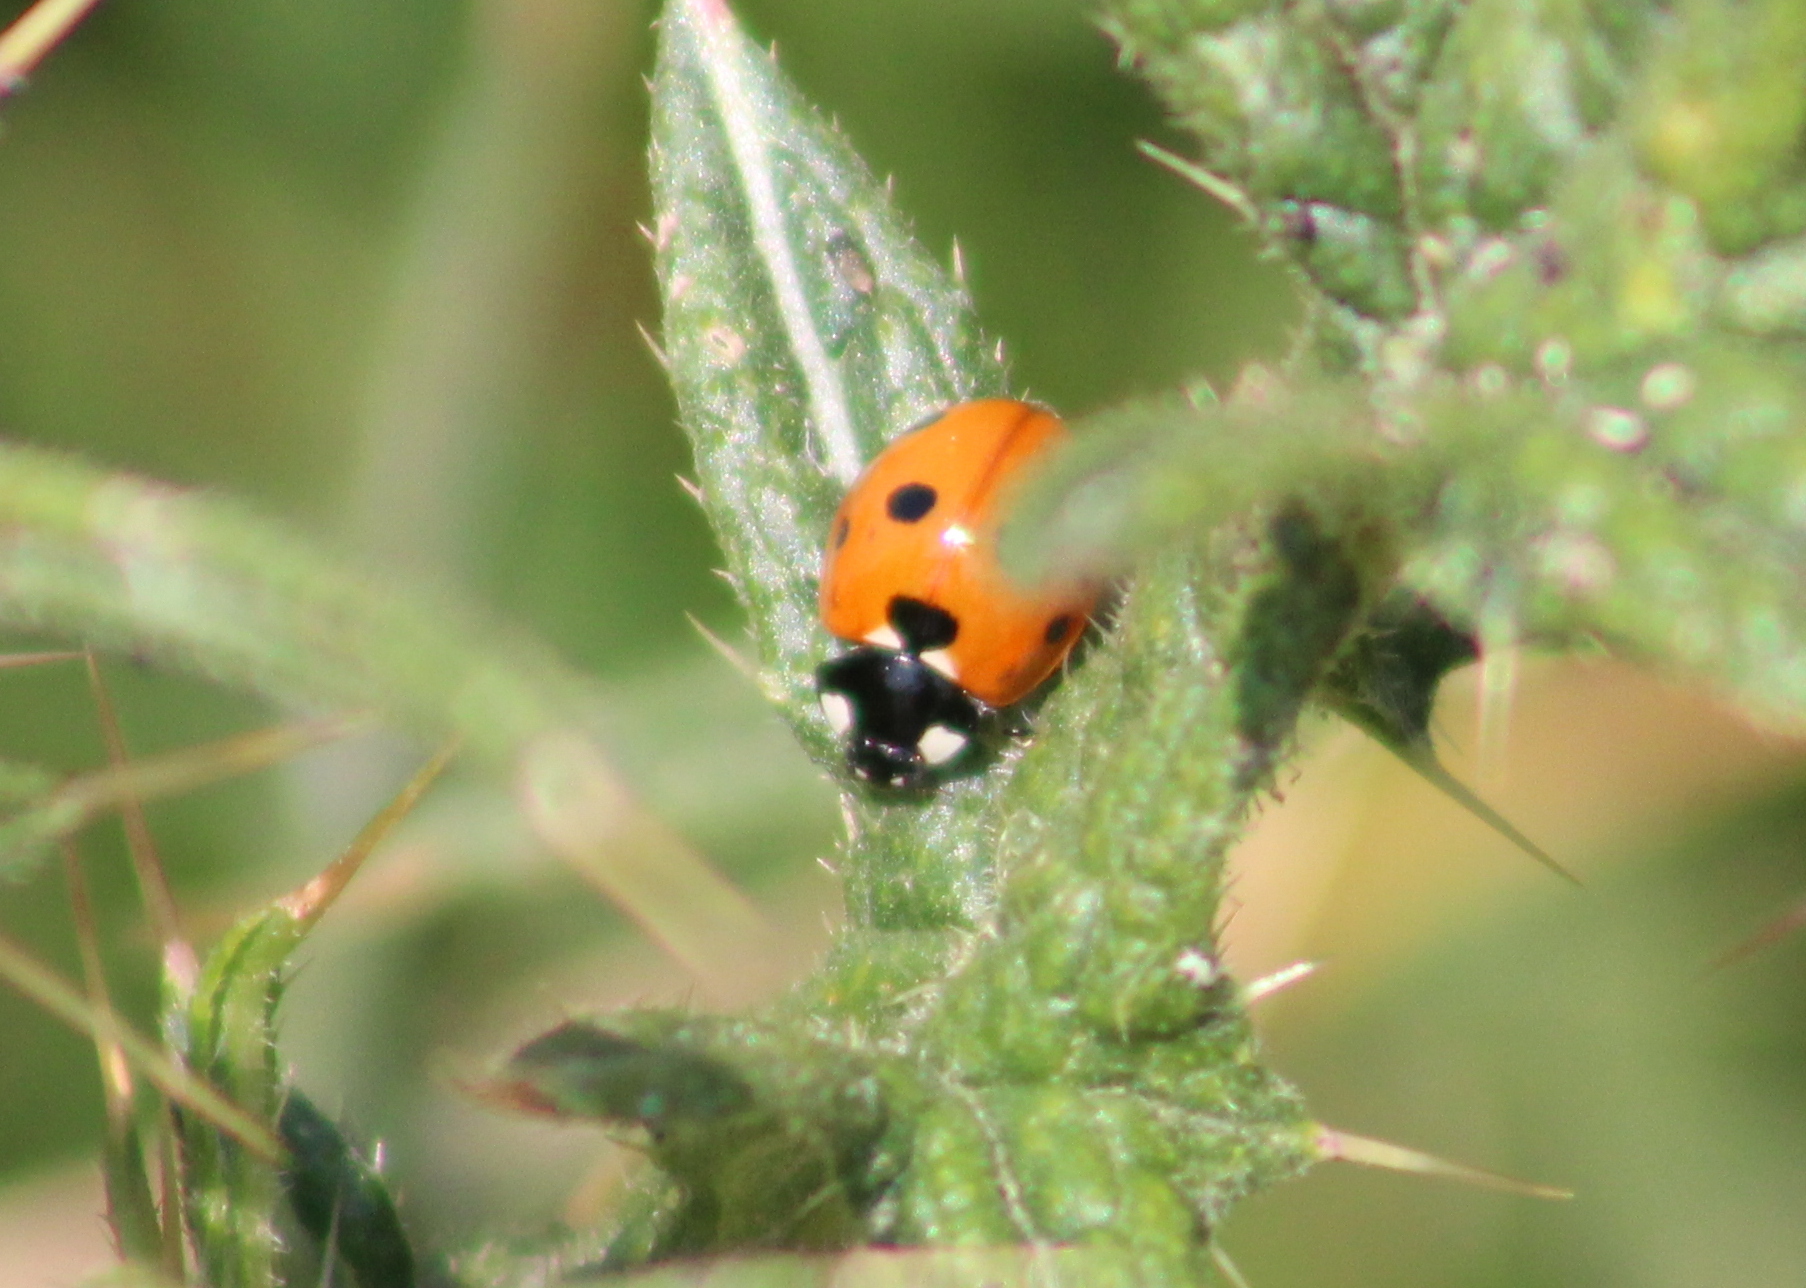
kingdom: Animalia
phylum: Arthropoda
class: Insecta
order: Coleoptera
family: Coccinellidae
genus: Coccinella
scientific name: Coccinella septempunctata
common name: Sevenspotted lady beetle
